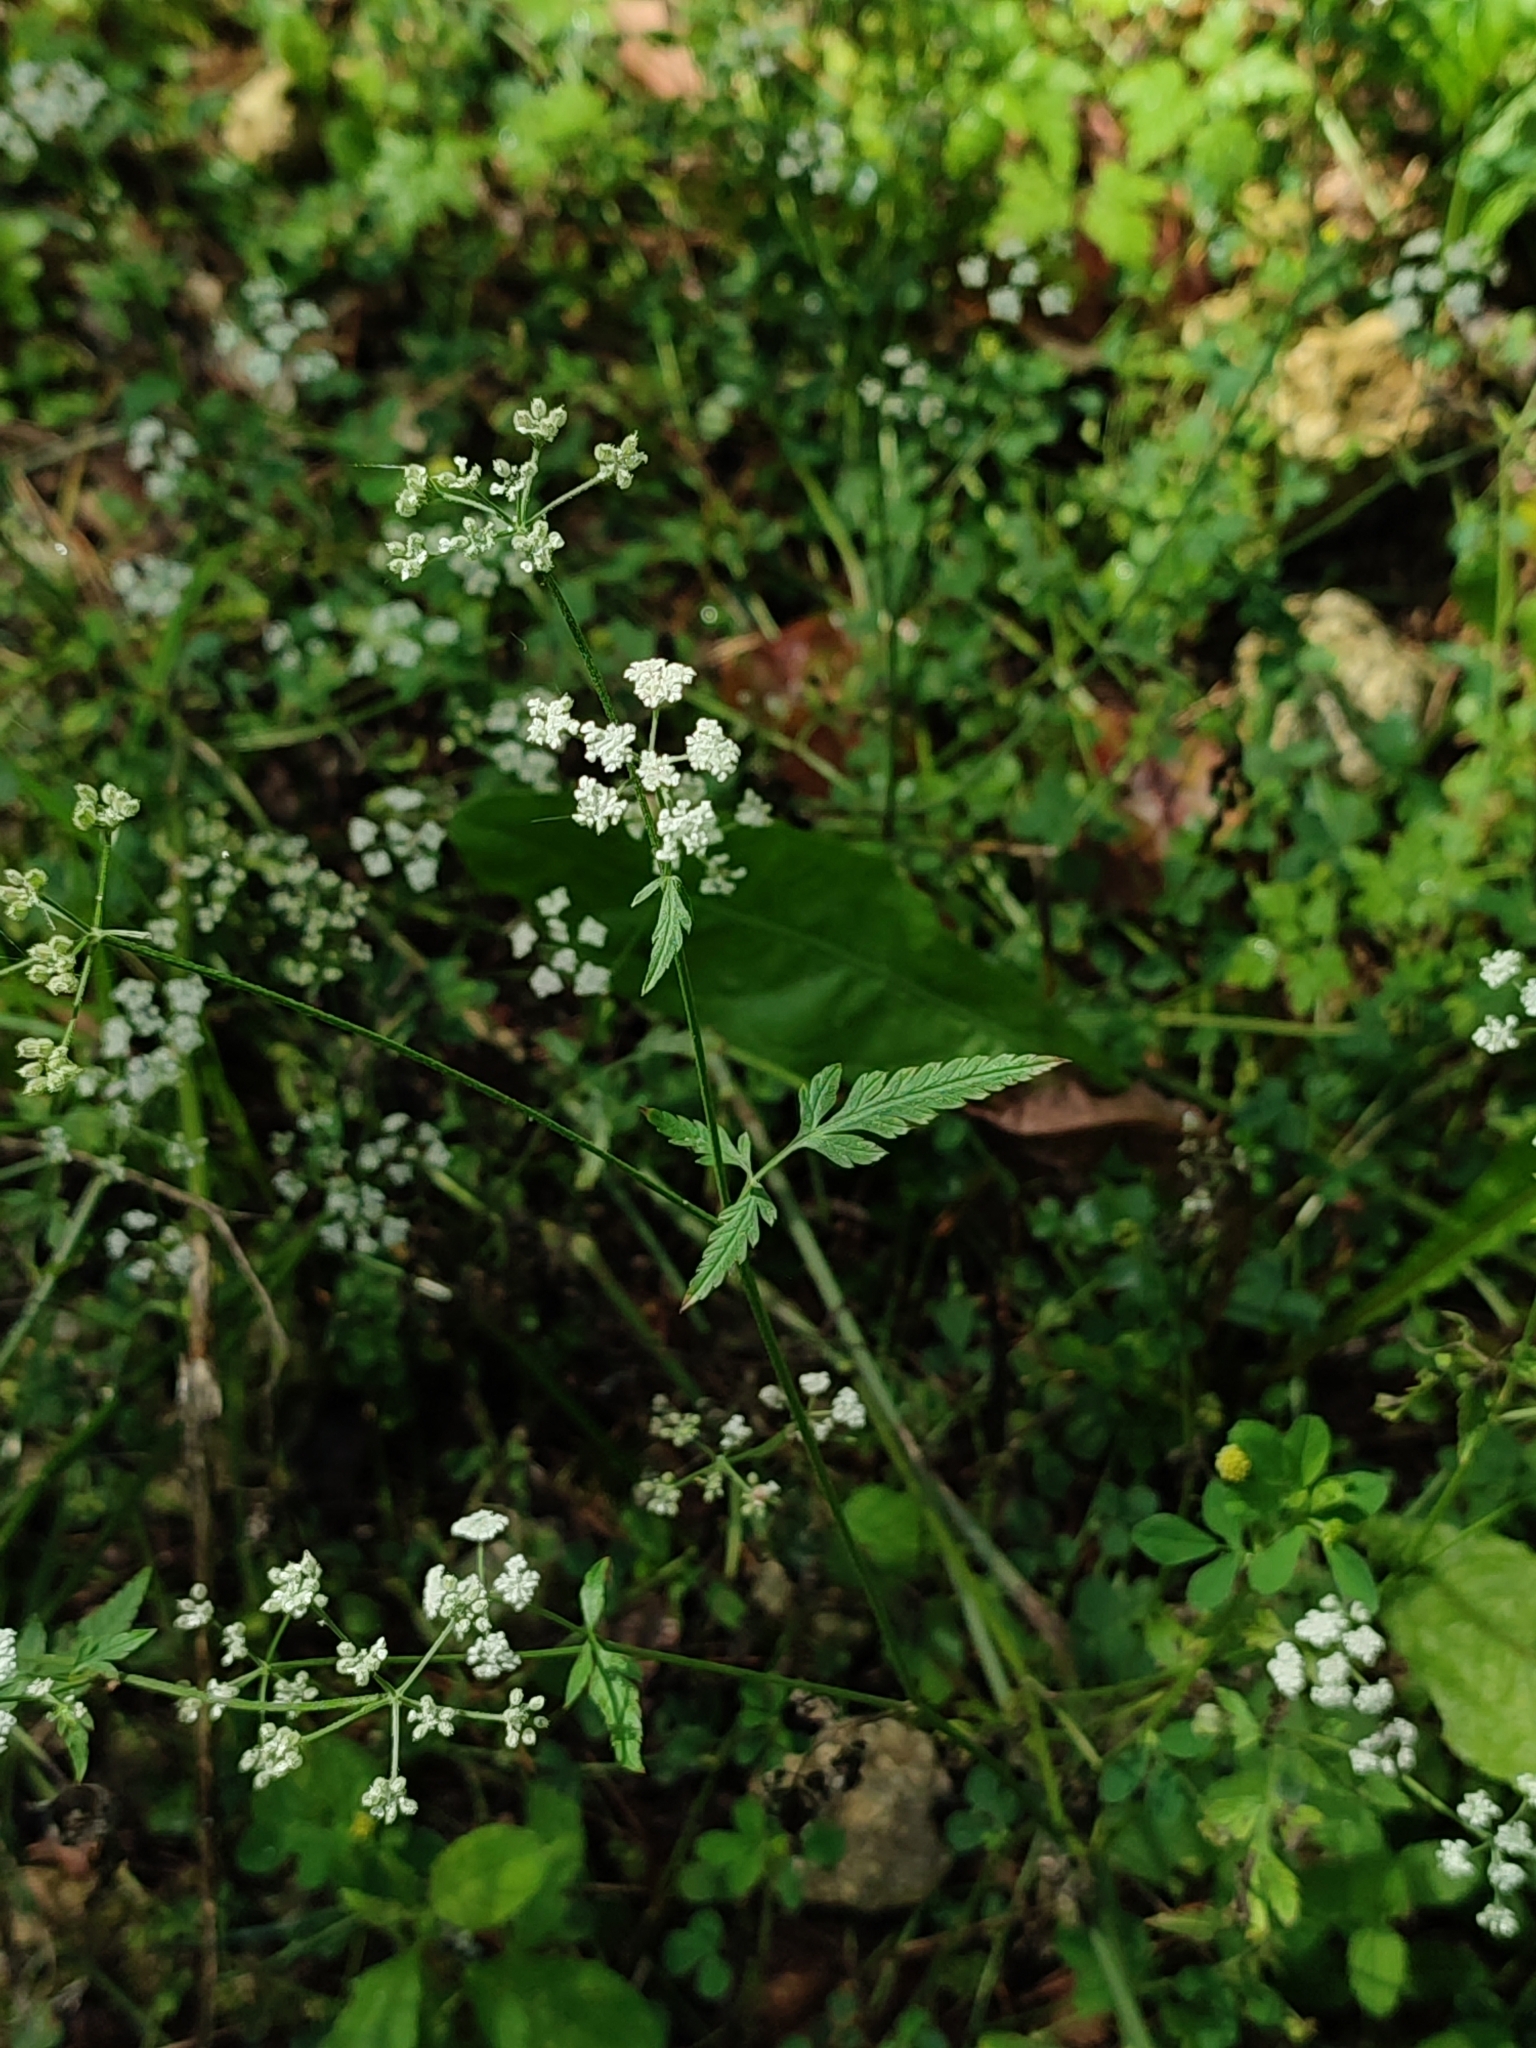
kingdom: Plantae
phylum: Tracheophyta
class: Magnoliopsida
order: Apiales
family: Apiaceae
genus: Torilis
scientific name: Torilis japonica
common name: Upright hedge-parsley
